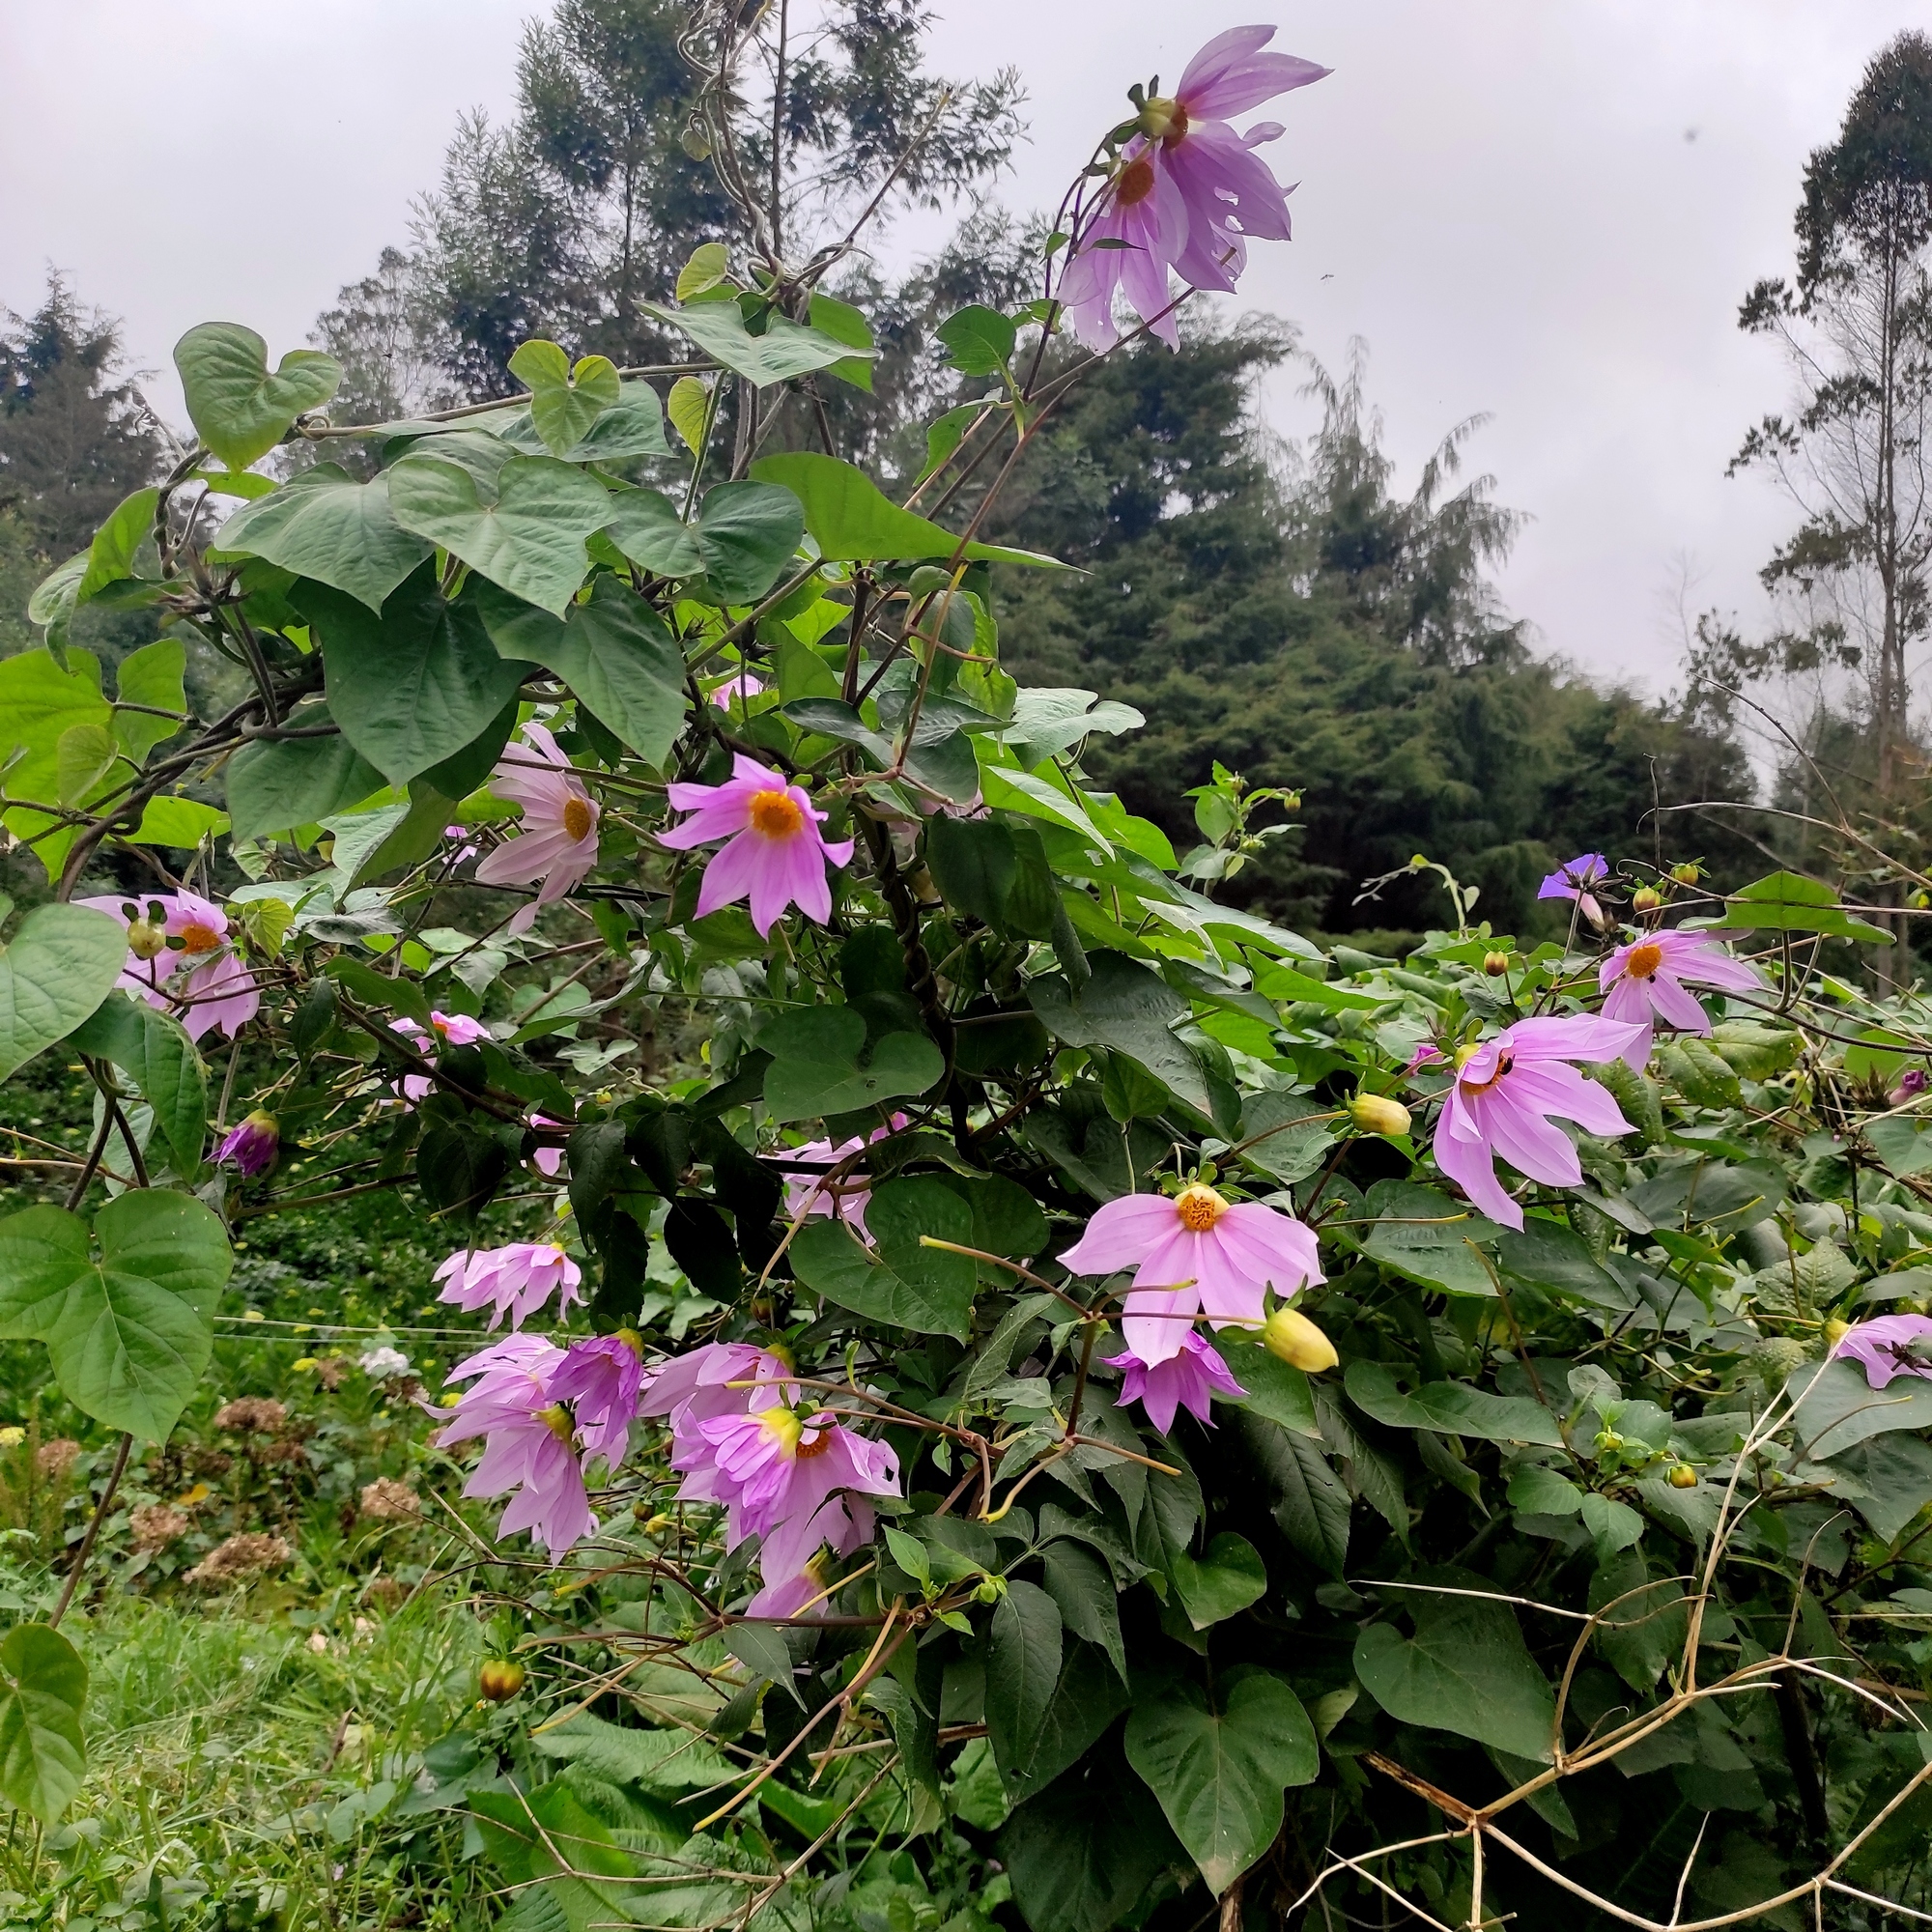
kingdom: Plantae
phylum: Tracheophyta
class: Magnoliopsida
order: Asterales
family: Asteraceae
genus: Dahlia
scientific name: Dahlia imperialis
